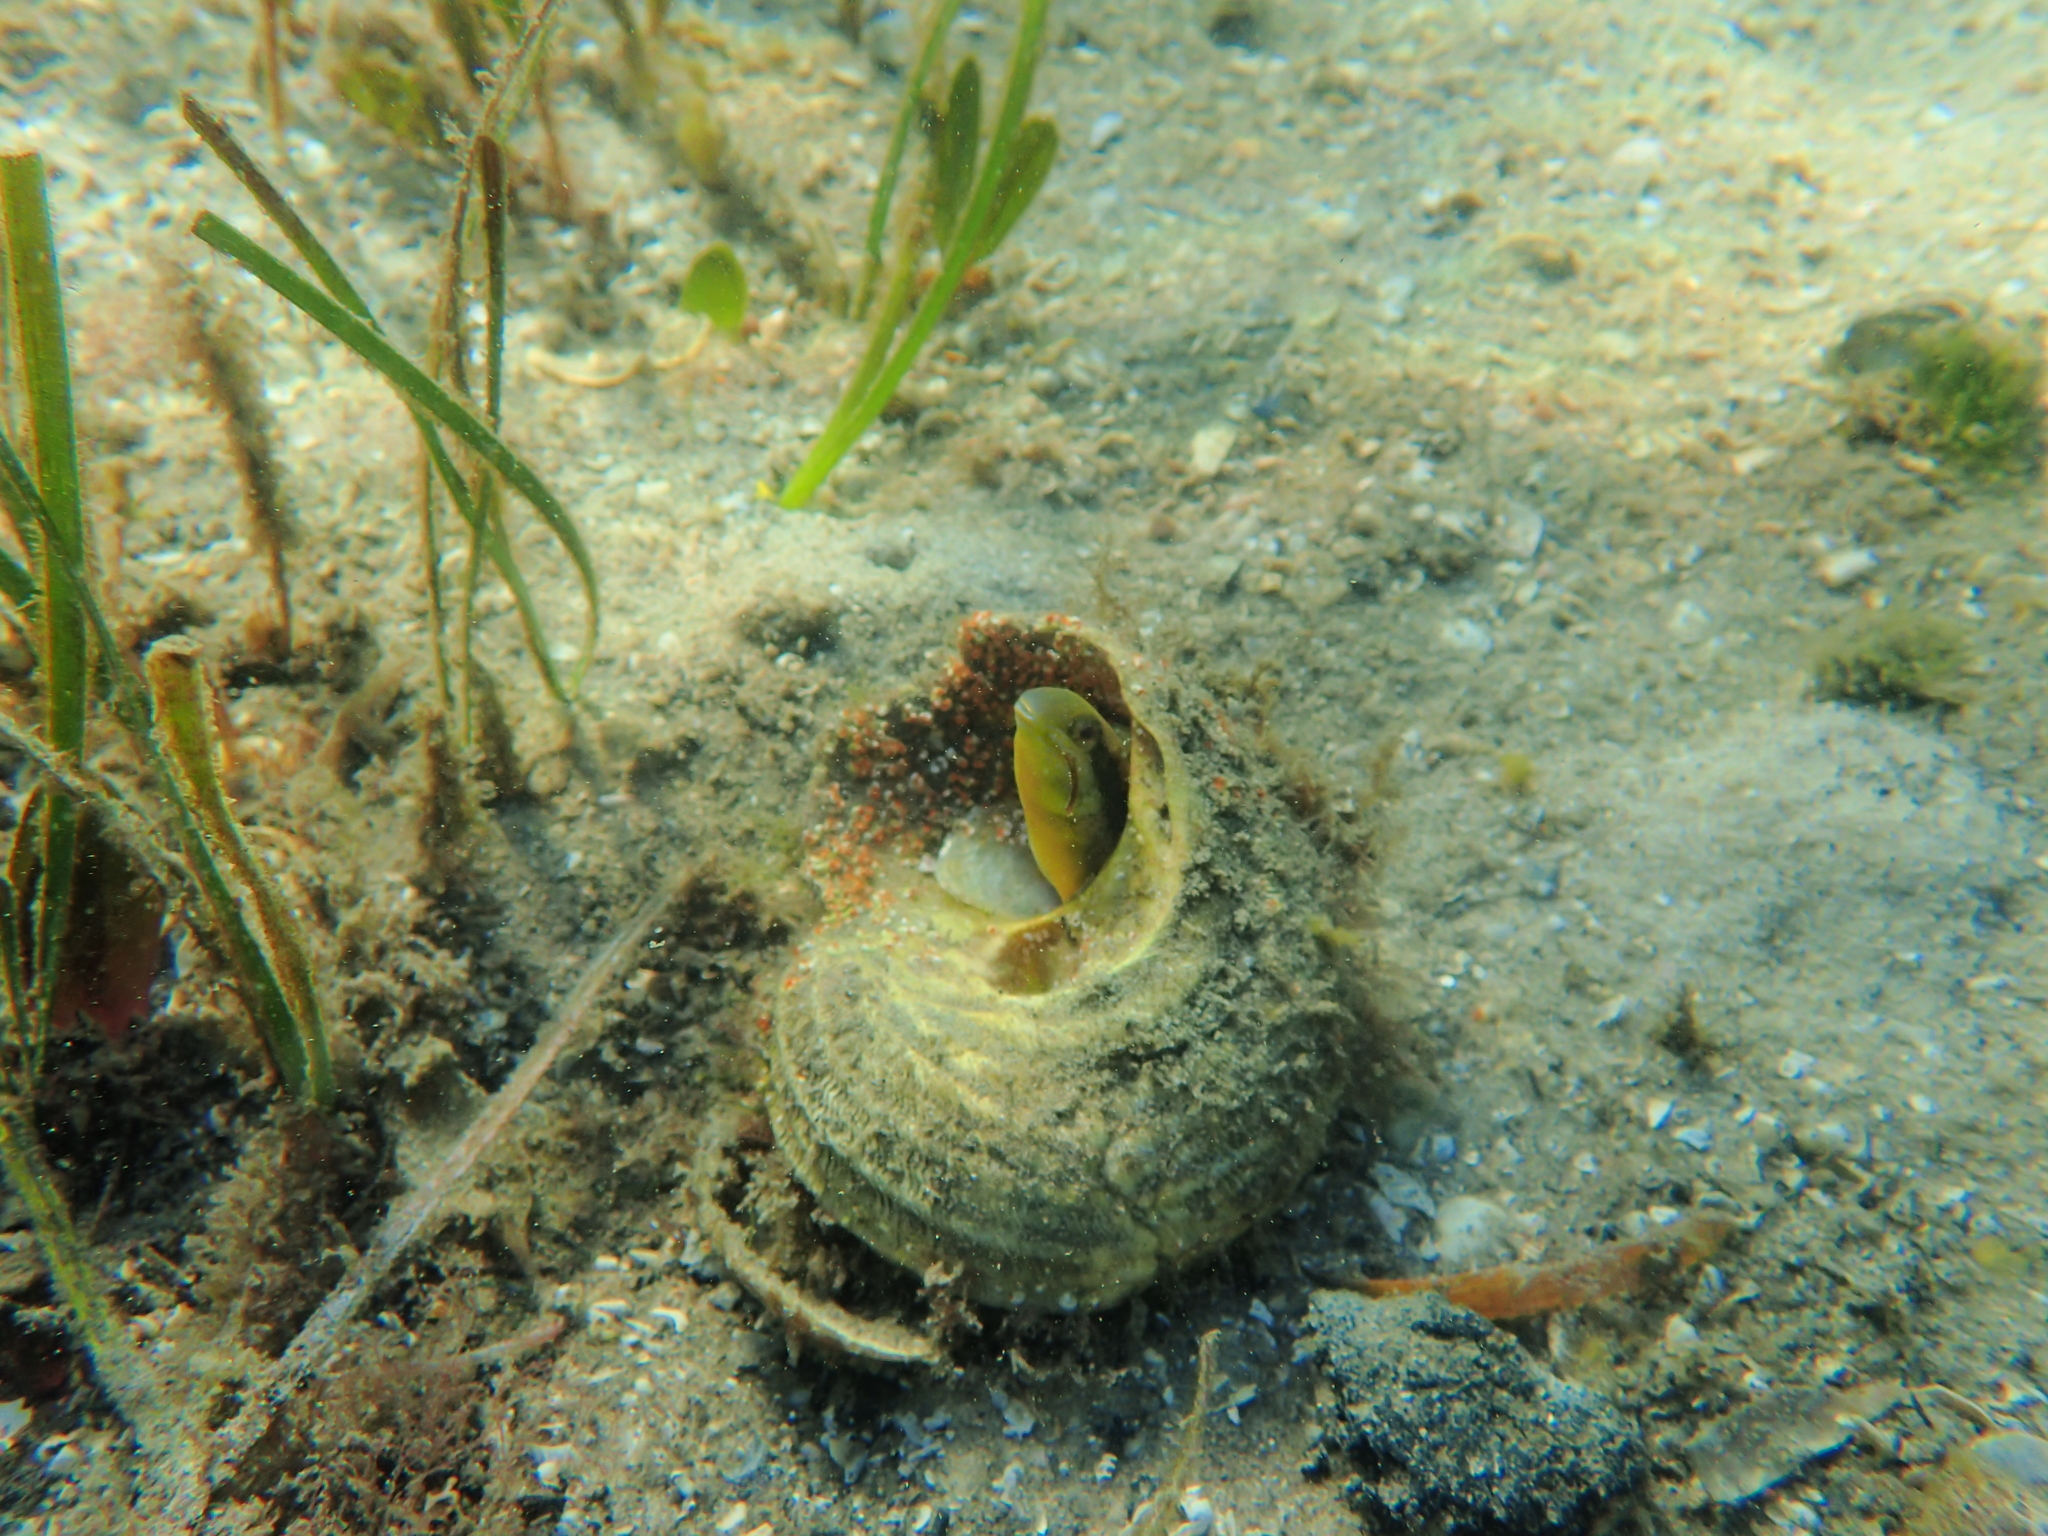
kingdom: Animalia
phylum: Chordata
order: Perciformes
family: Blenniidae
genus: Petroscirtes
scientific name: Petroscirtes lupus
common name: Wolf fangblenny
